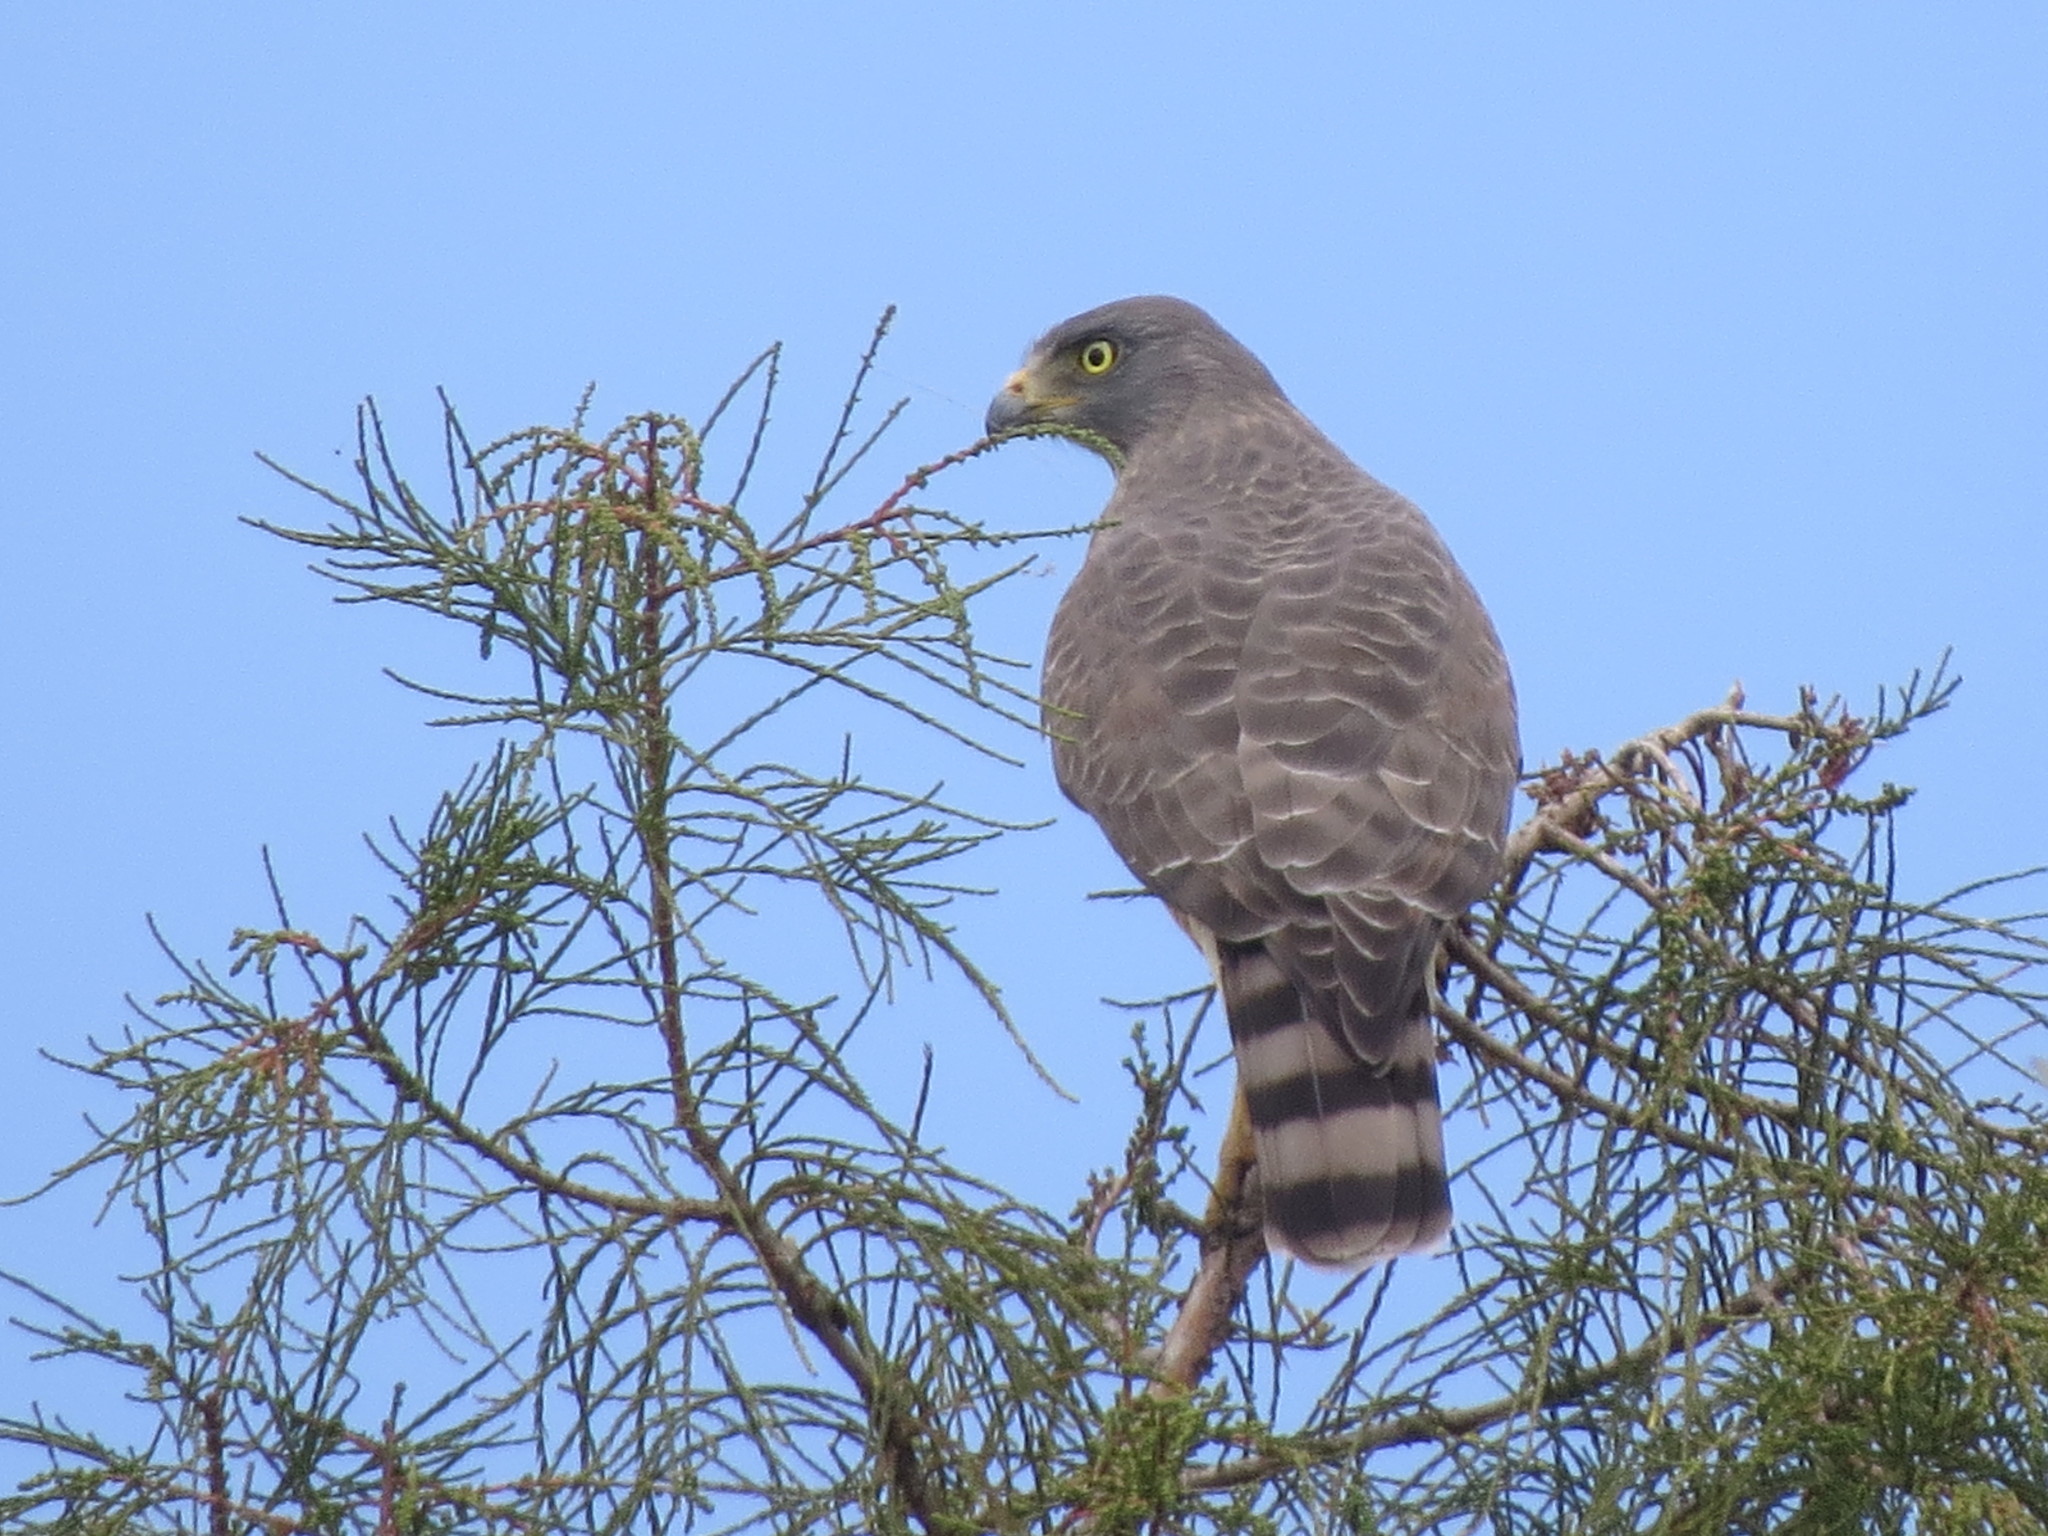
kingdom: Animalia
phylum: Chordata
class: Aves
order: Accipitriformes
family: Accipitridae
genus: Rupornis
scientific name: Rupornis magnirostris
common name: Roadside hawk
